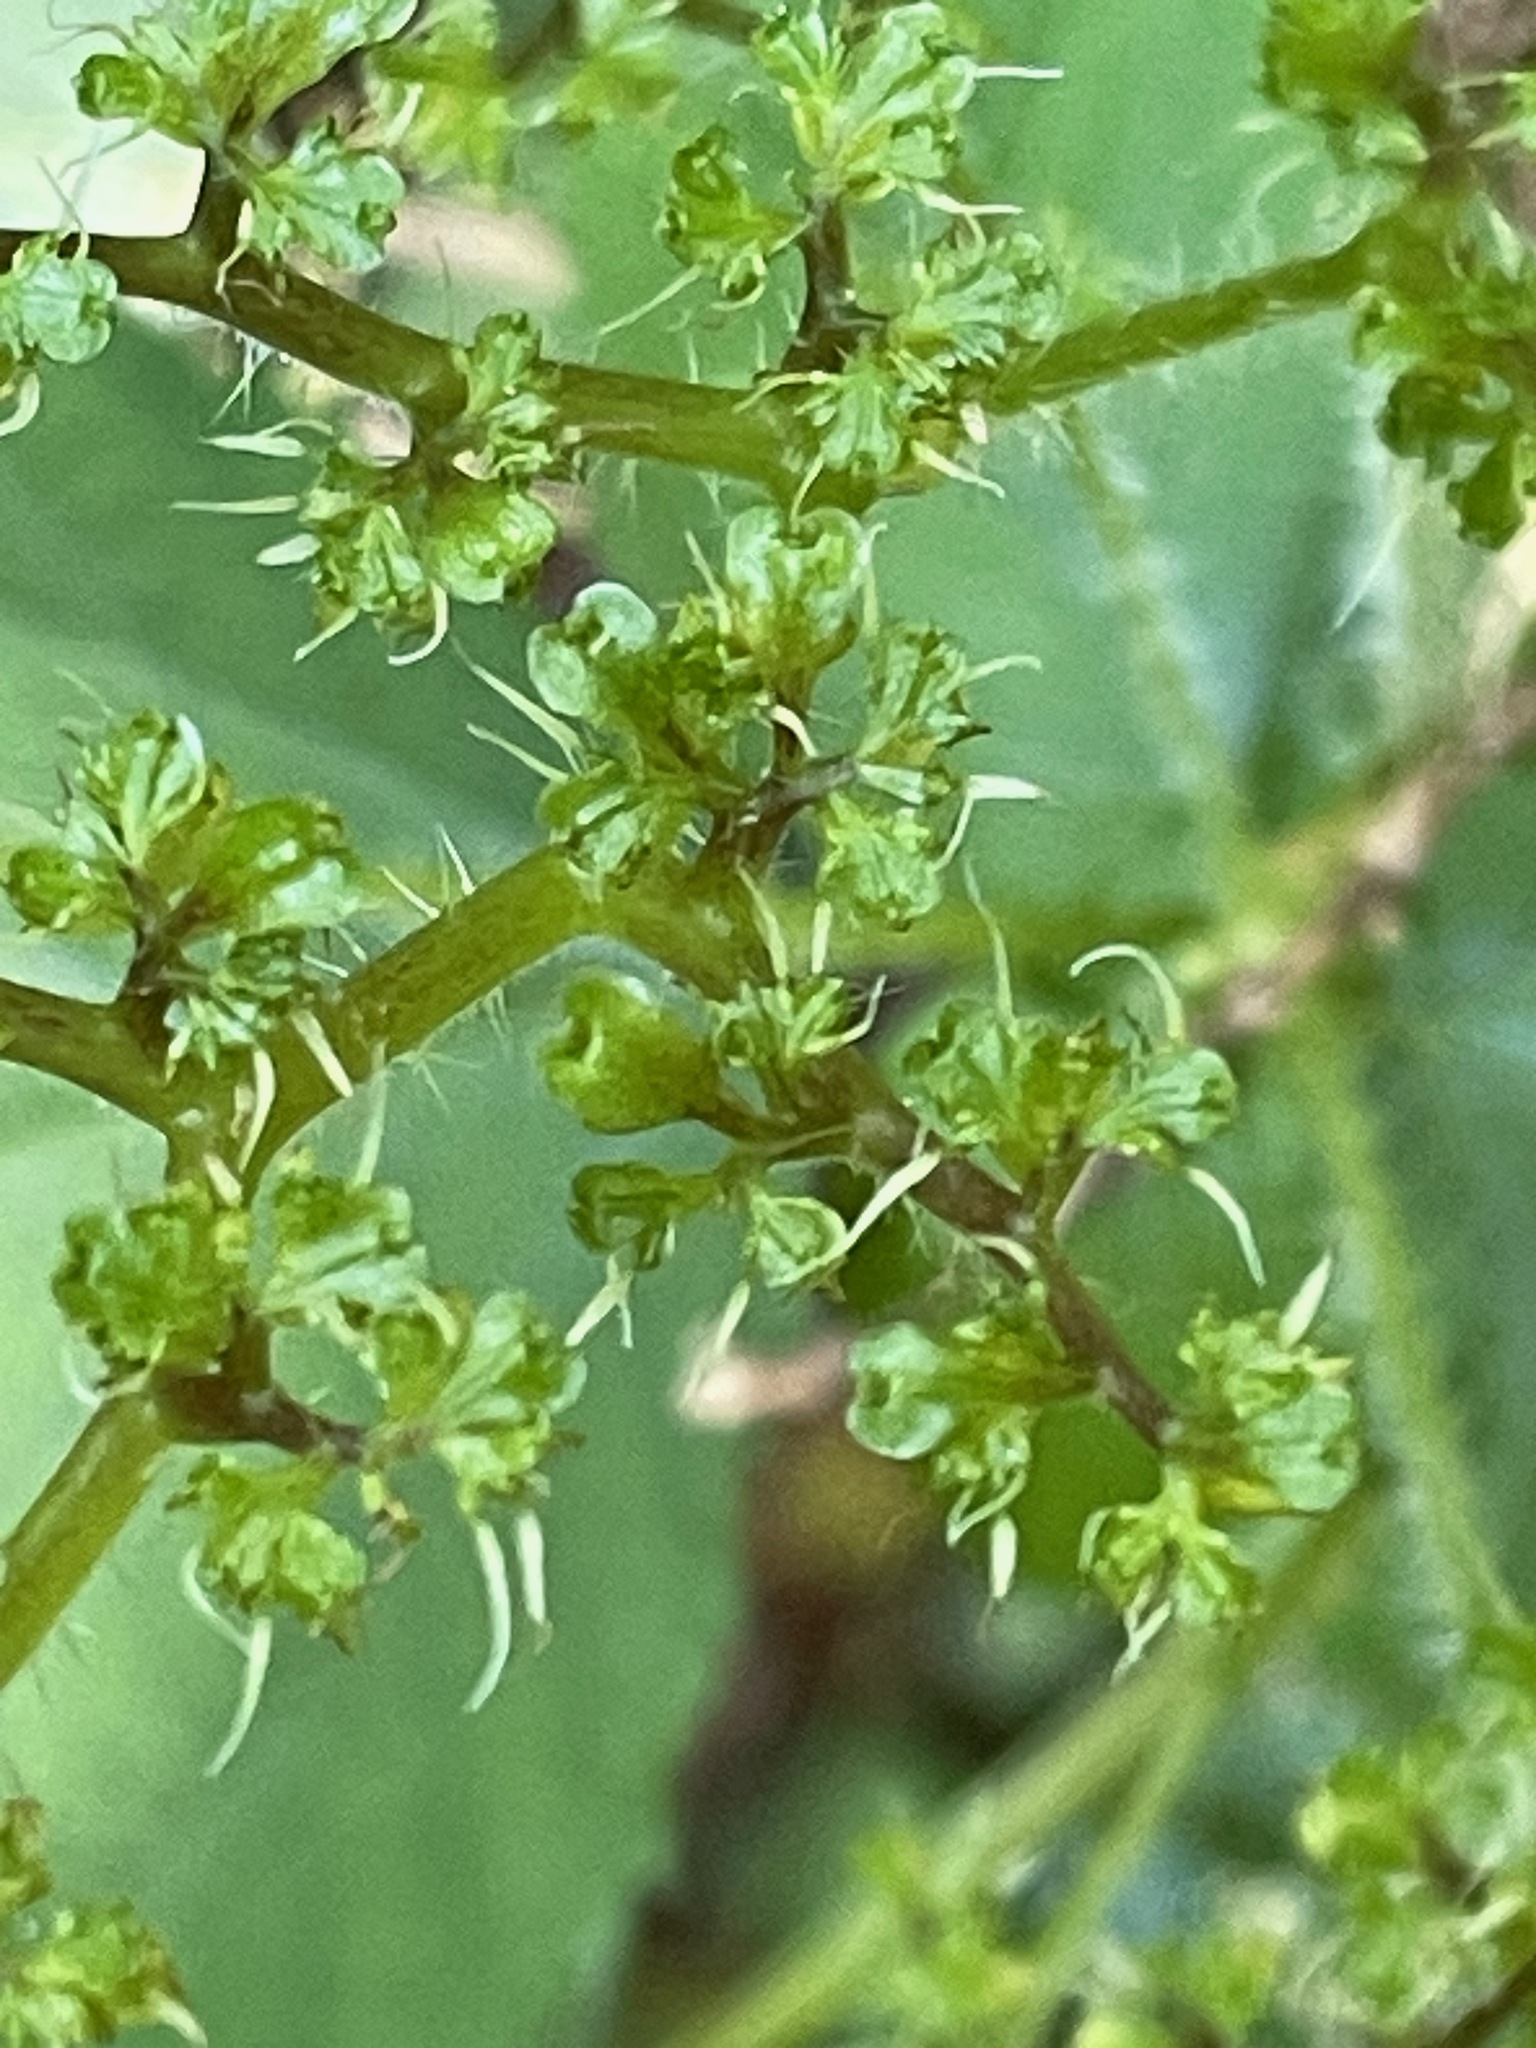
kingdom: Plantae
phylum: Tracheophyta
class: Magnoliopsida
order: Rosales
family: Urticaceae
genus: Laportea
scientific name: Laportea canadensis
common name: Canada nettle
